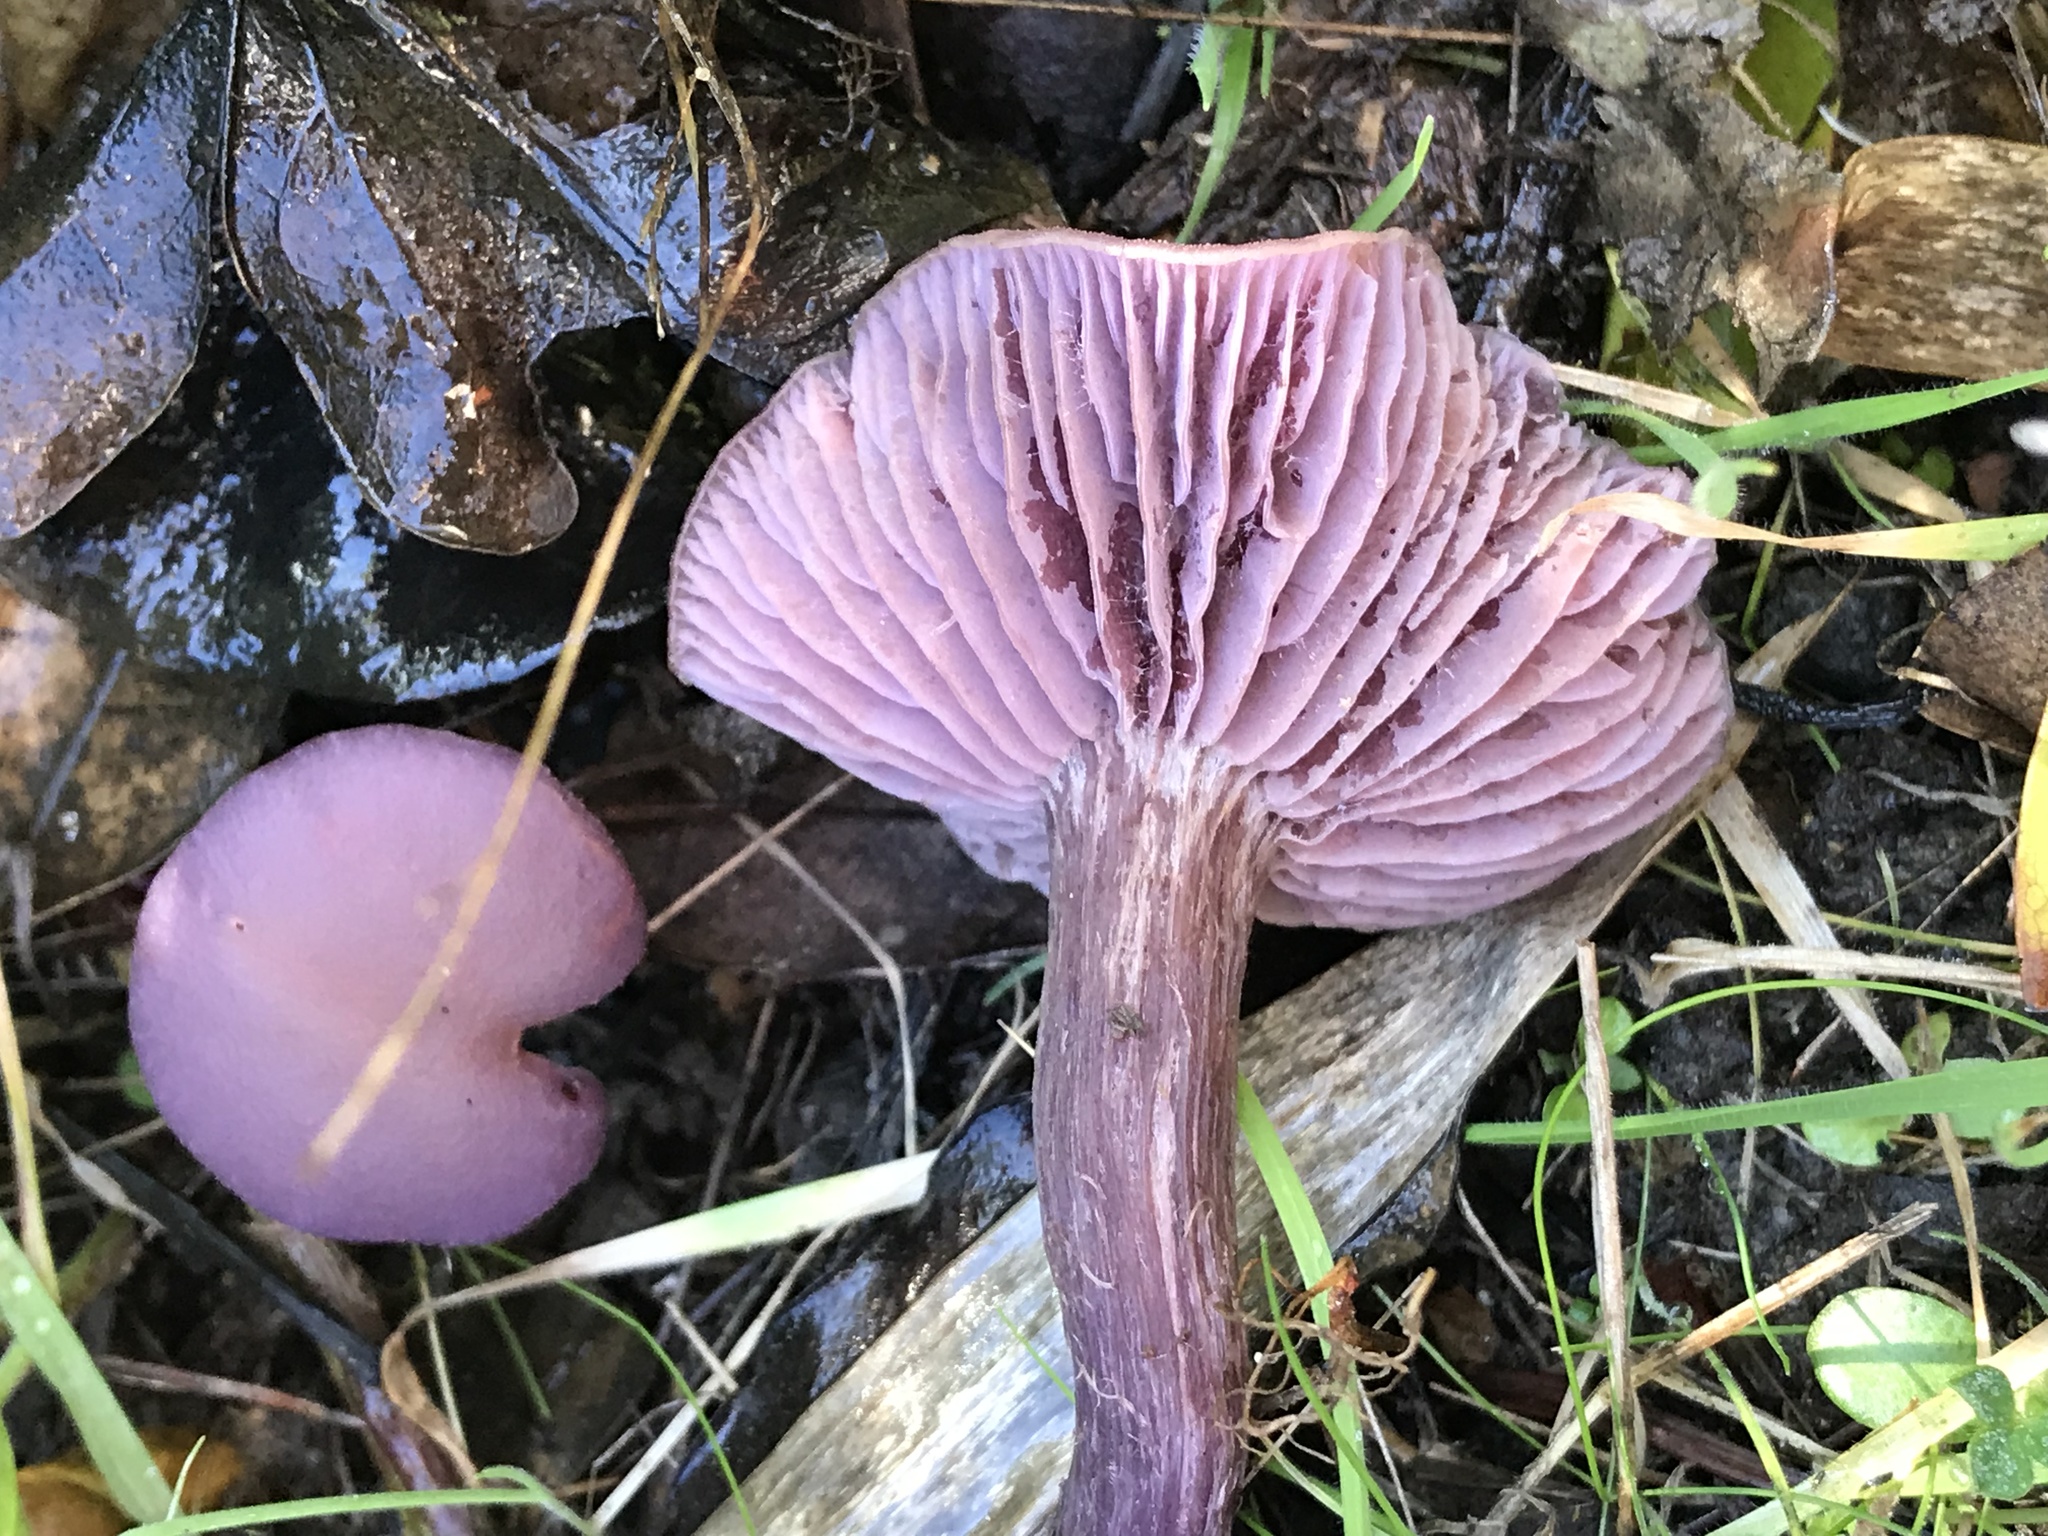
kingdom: Fungi
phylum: Basidiomycota
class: Agaricomycetes
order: Agaricales
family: Hydnangiaceae
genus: Laccaria
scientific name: Laccaria amethysteo-occidentalis
